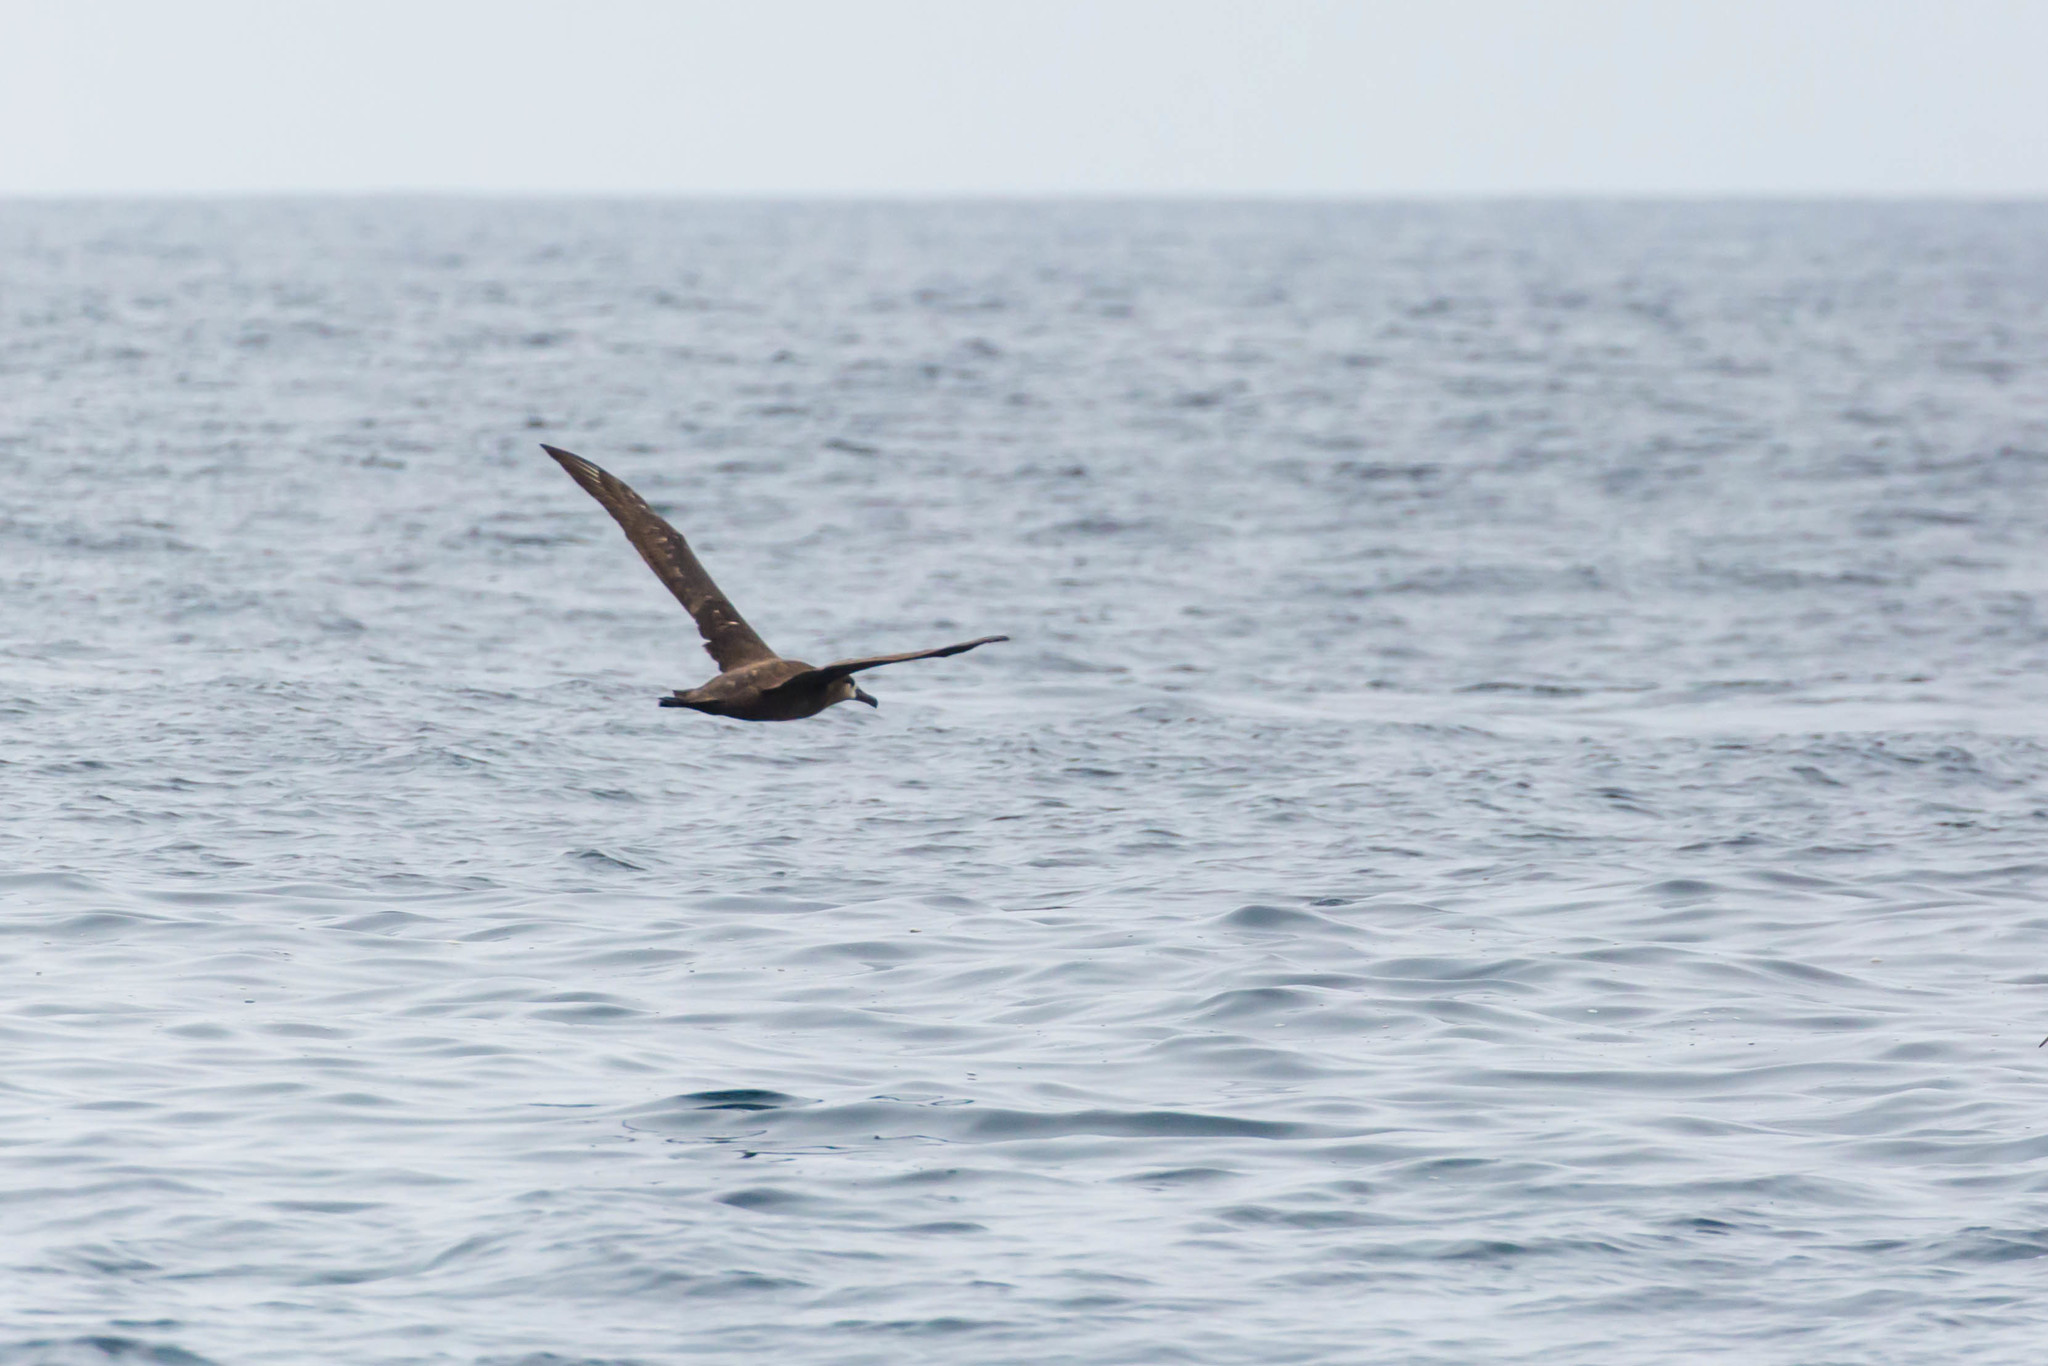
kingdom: Animalia
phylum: Chordata
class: Aves
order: Procellariiformes
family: Diomedeidae
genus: Phoebastria
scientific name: Phoebastria nigripes
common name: Black-footed albatross
